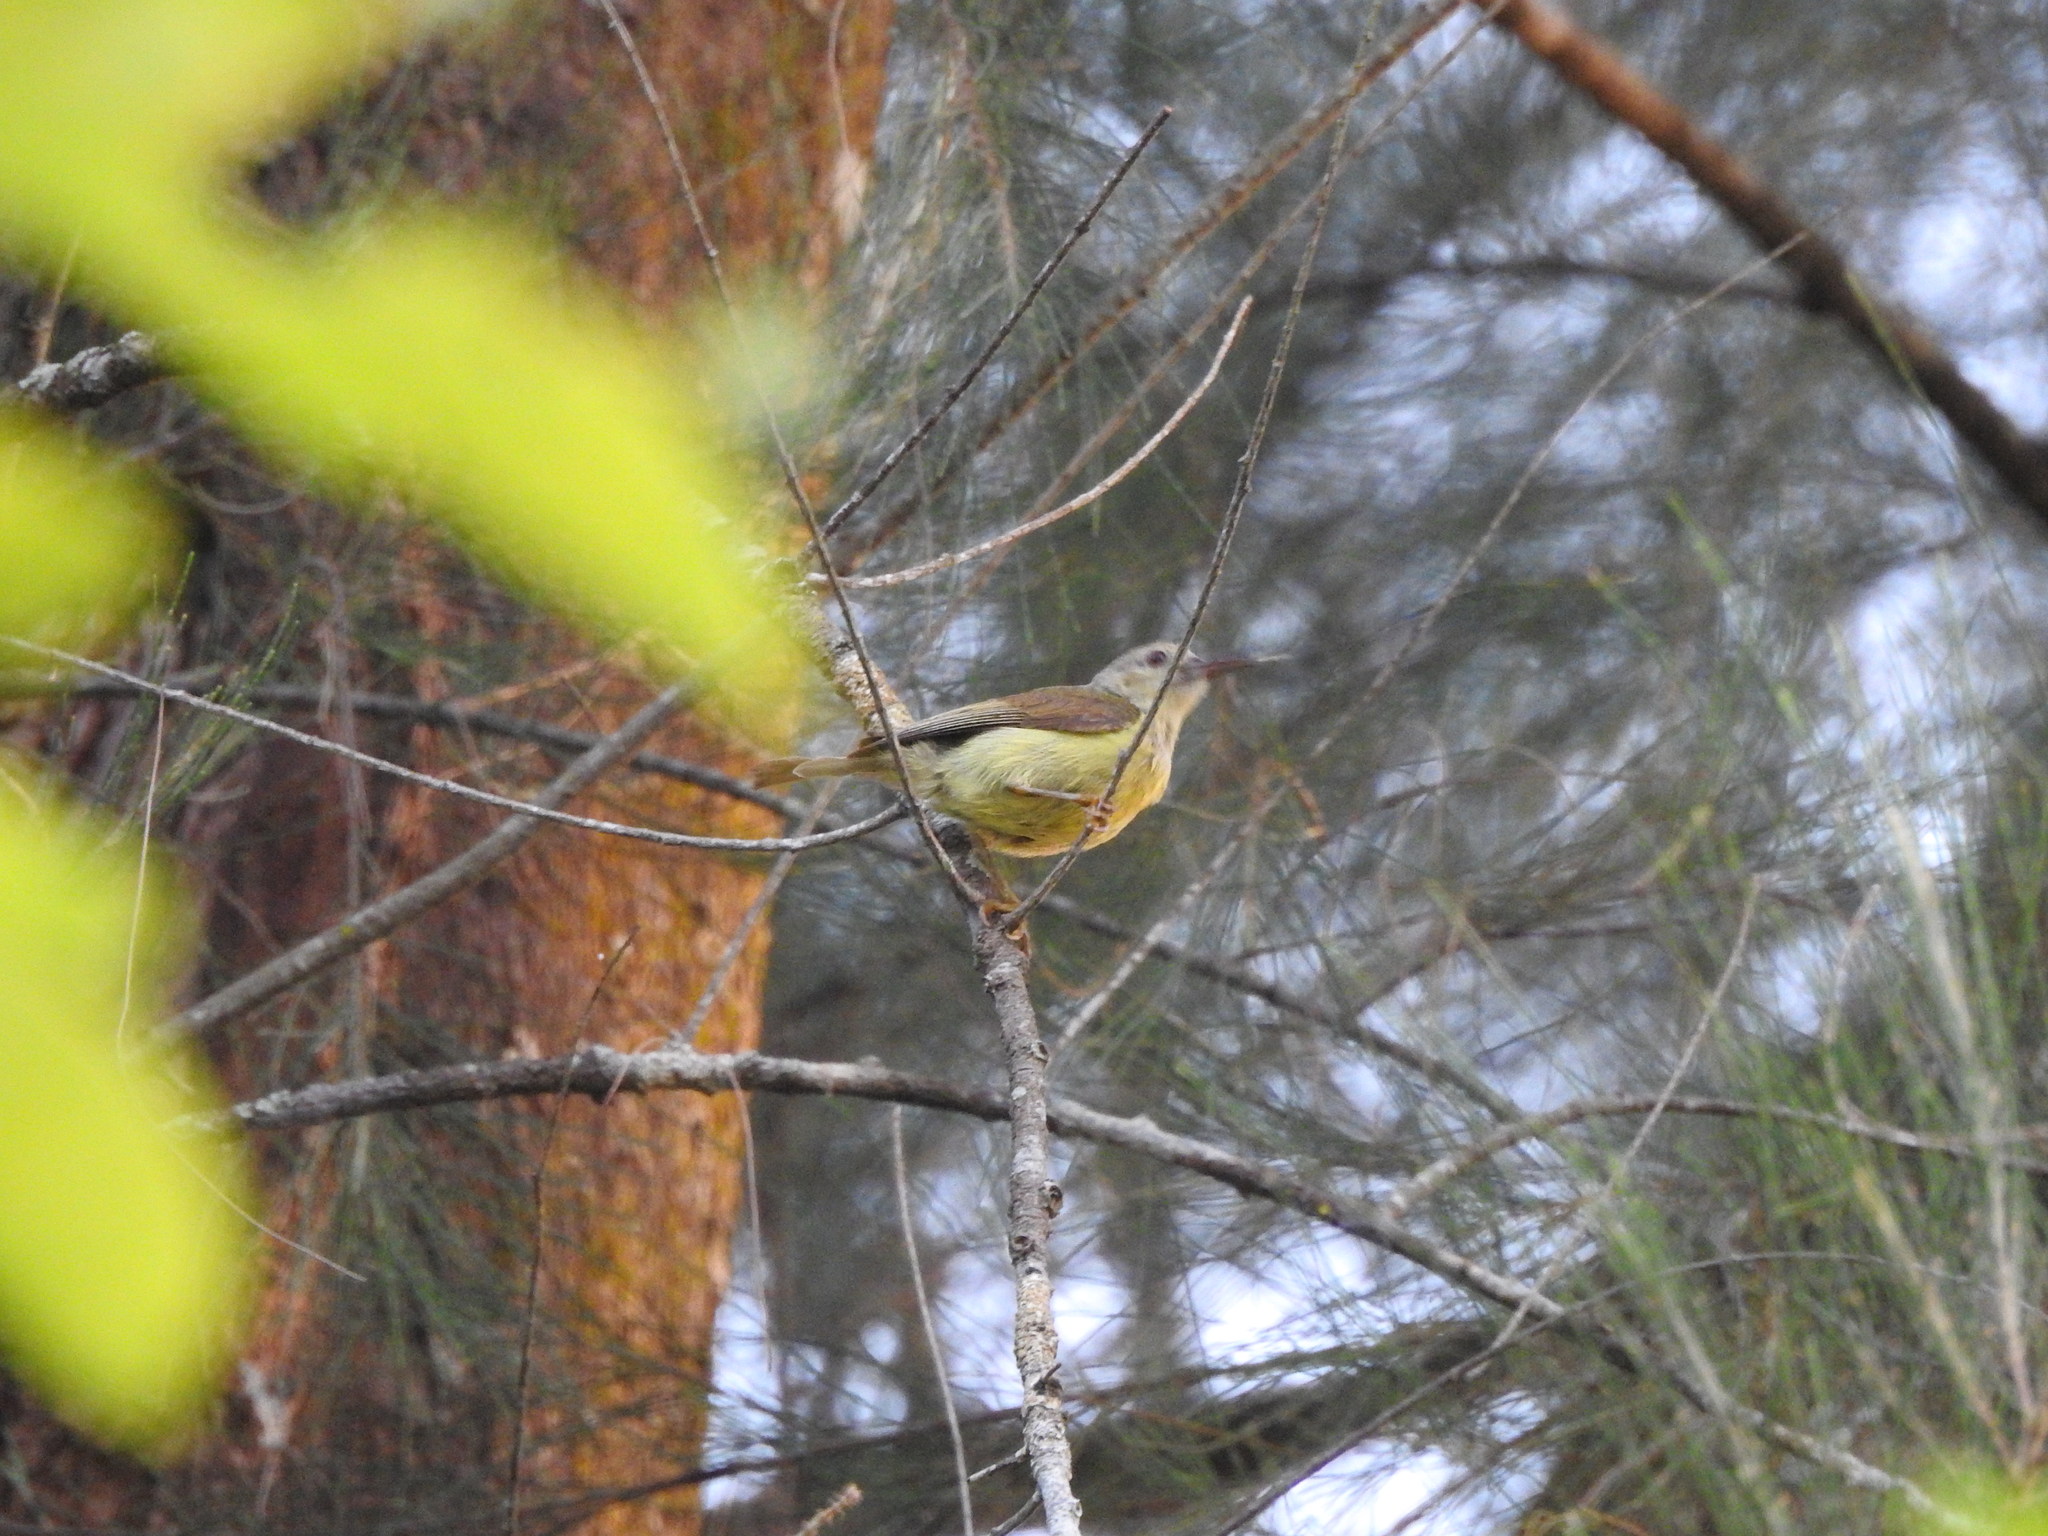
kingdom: Animalia
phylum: Chordata
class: Aves
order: Passeriformes
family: Nectariniidae
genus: Anthreptes
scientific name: Anthreptes malacensis
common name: Brown-throated sunbird
